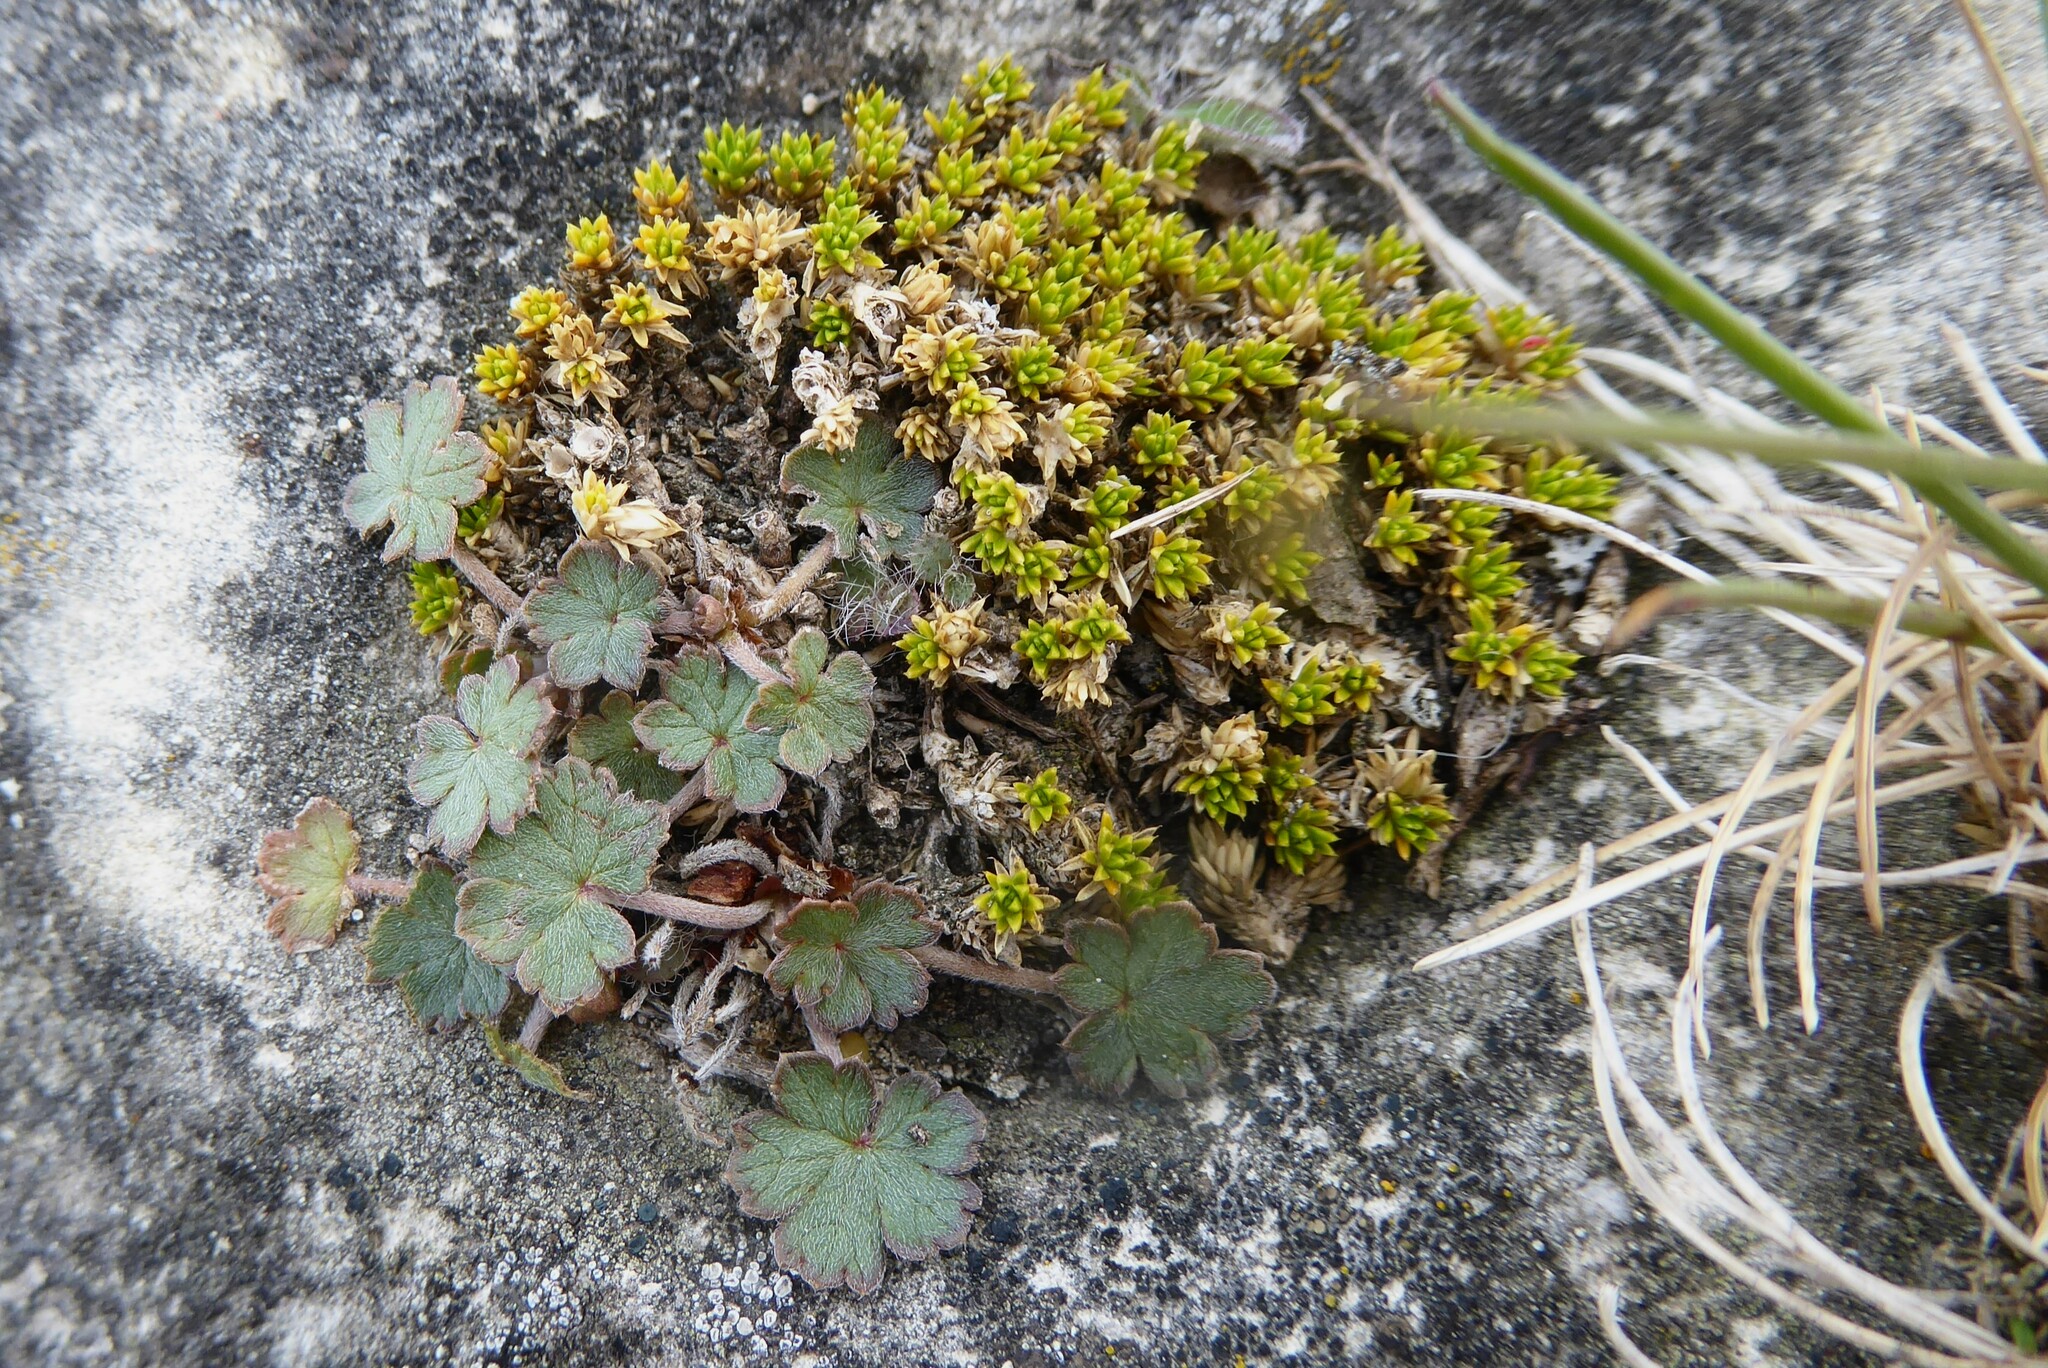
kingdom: Plantae
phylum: Tracheophyta
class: Magnoliopsida
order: Caryophyllales
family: Caryophyllaceae
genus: Colobanthus
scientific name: Colobanthus brevisepalus
